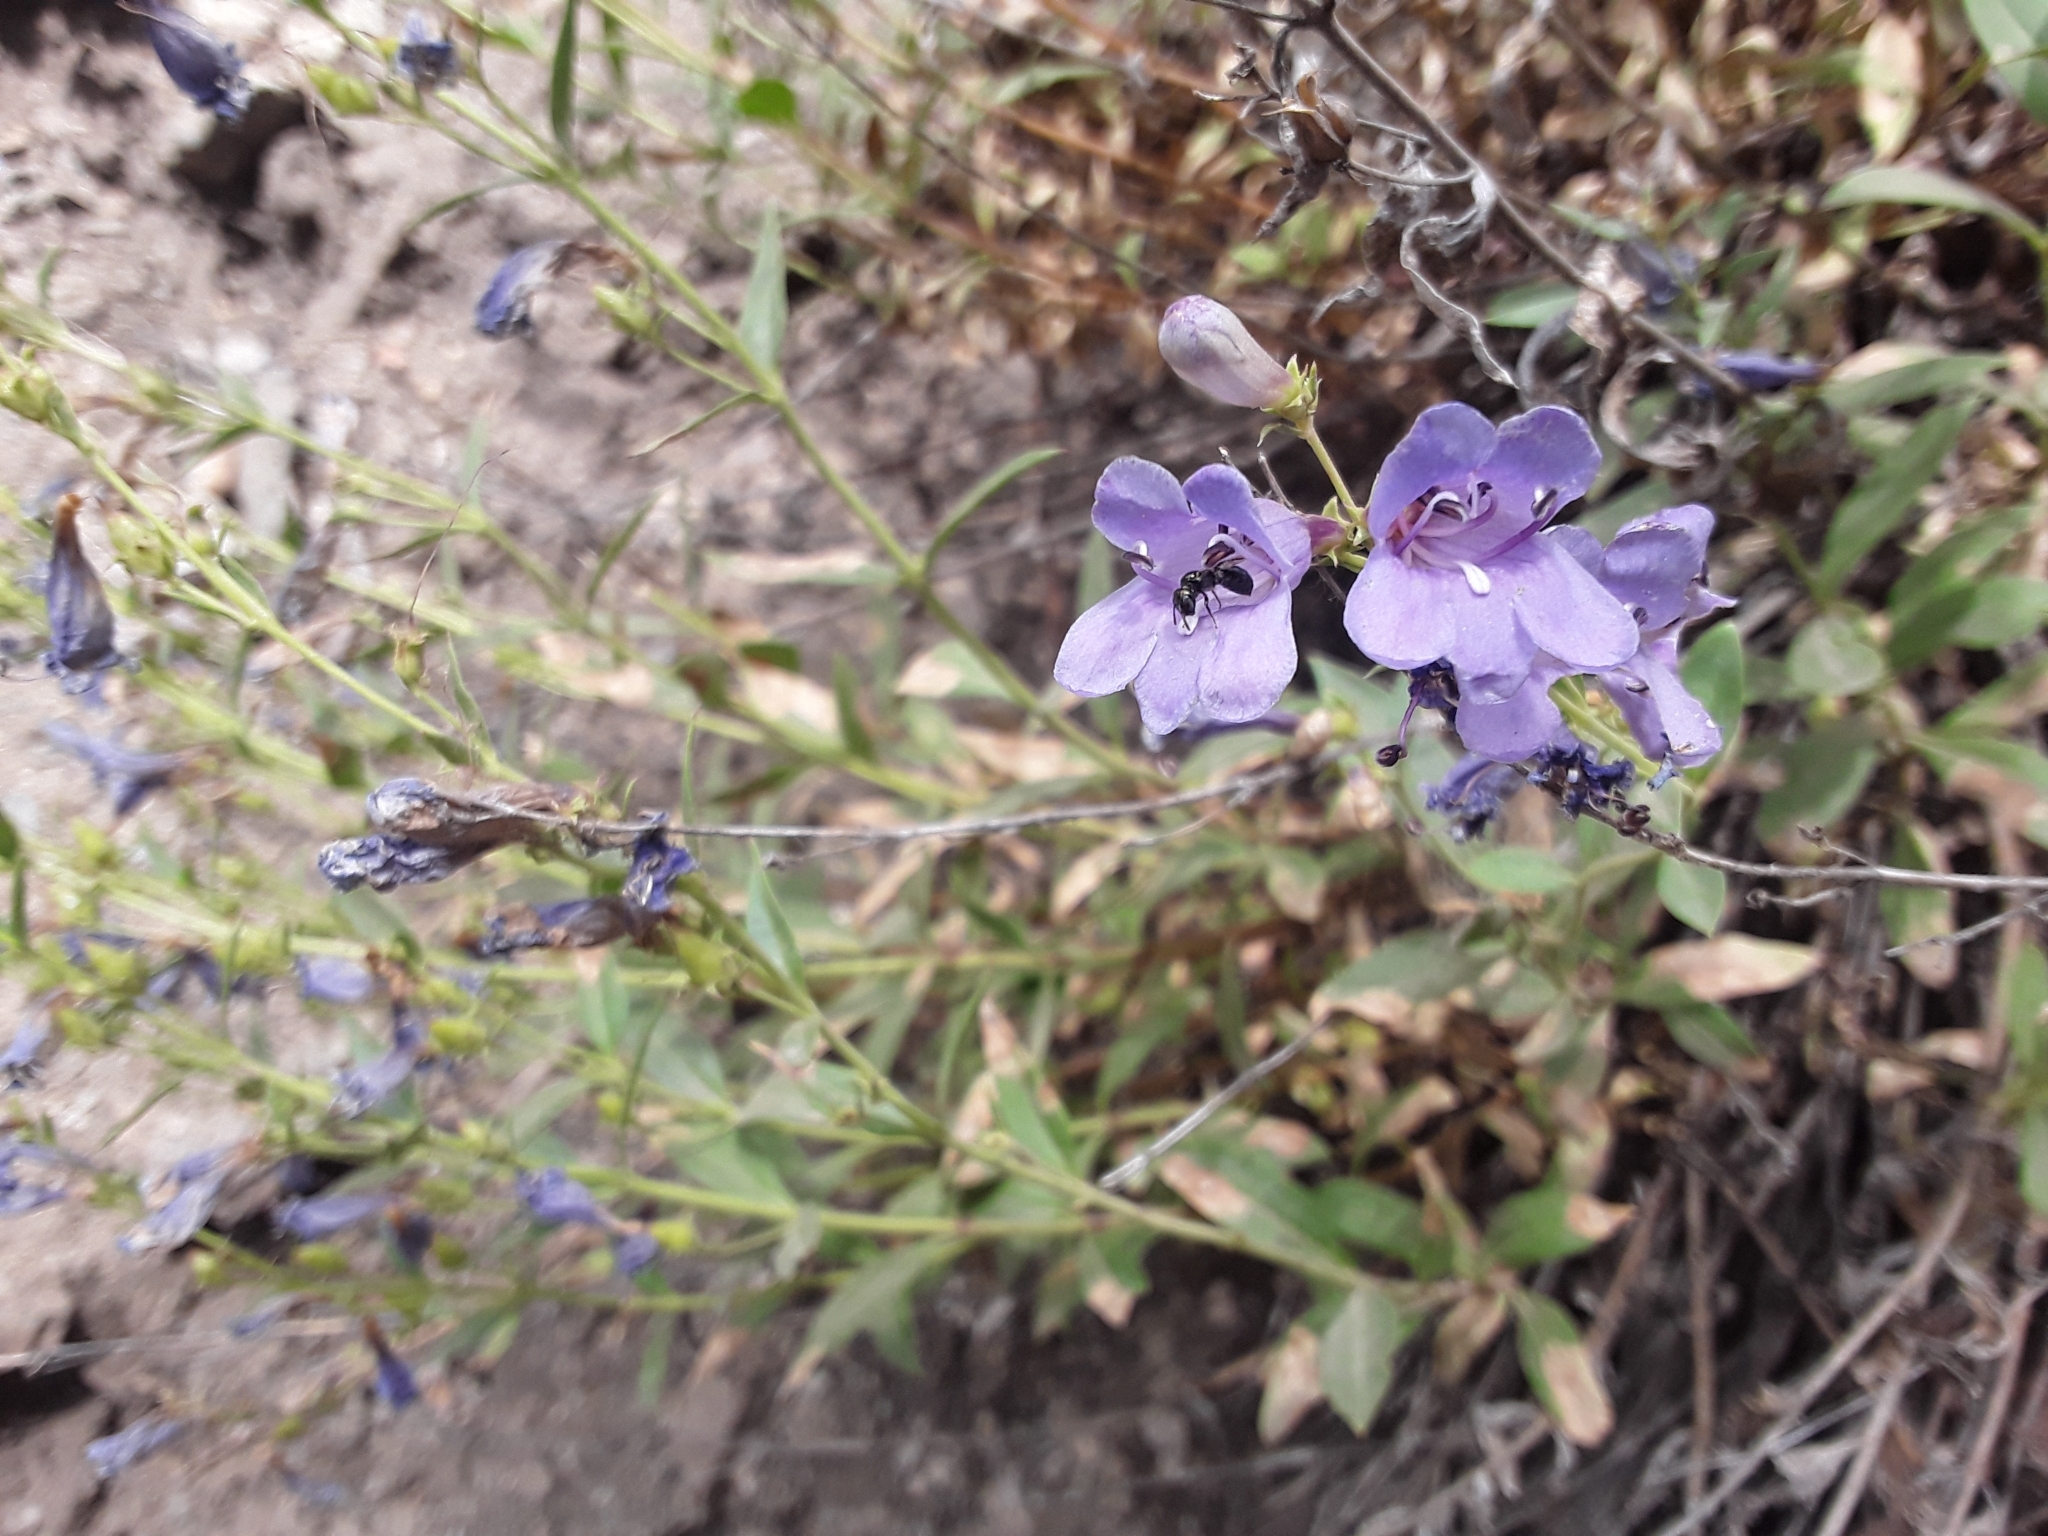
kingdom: Plantae
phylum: Tracheophyta
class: Magnoliopsida
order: Lamiales
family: Plantaginaceae
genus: Penstemon
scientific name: Penstemon platyphyllus
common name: Broadleaf penstemon
